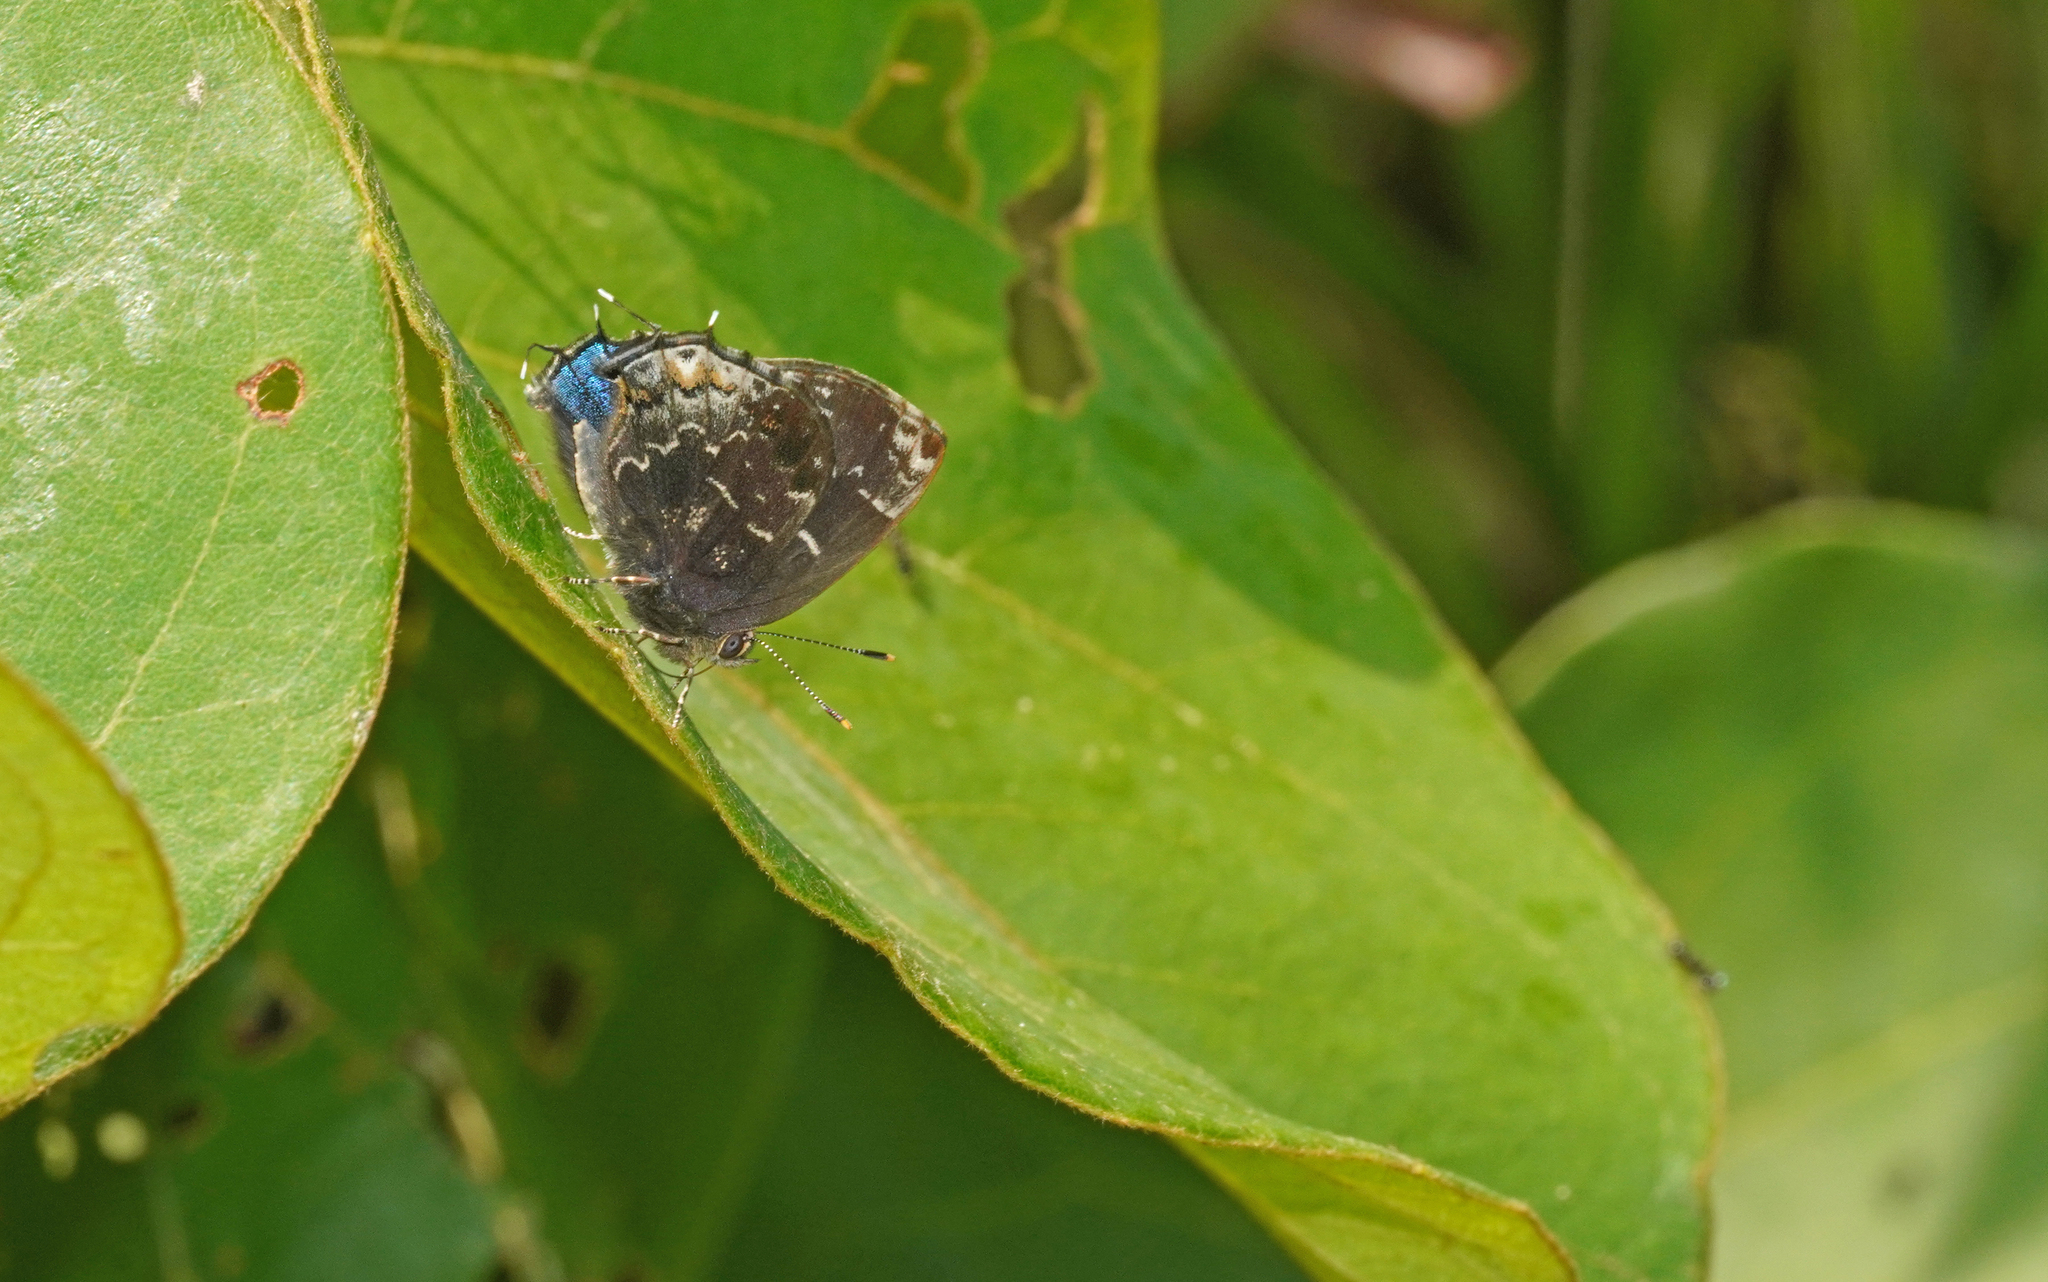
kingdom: Animalia
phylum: Arthropoda
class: Insecta
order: Lepidoptera
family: Lycaenidae
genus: Ocaria
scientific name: Ocaria ocrisia
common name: Black hairstreak
